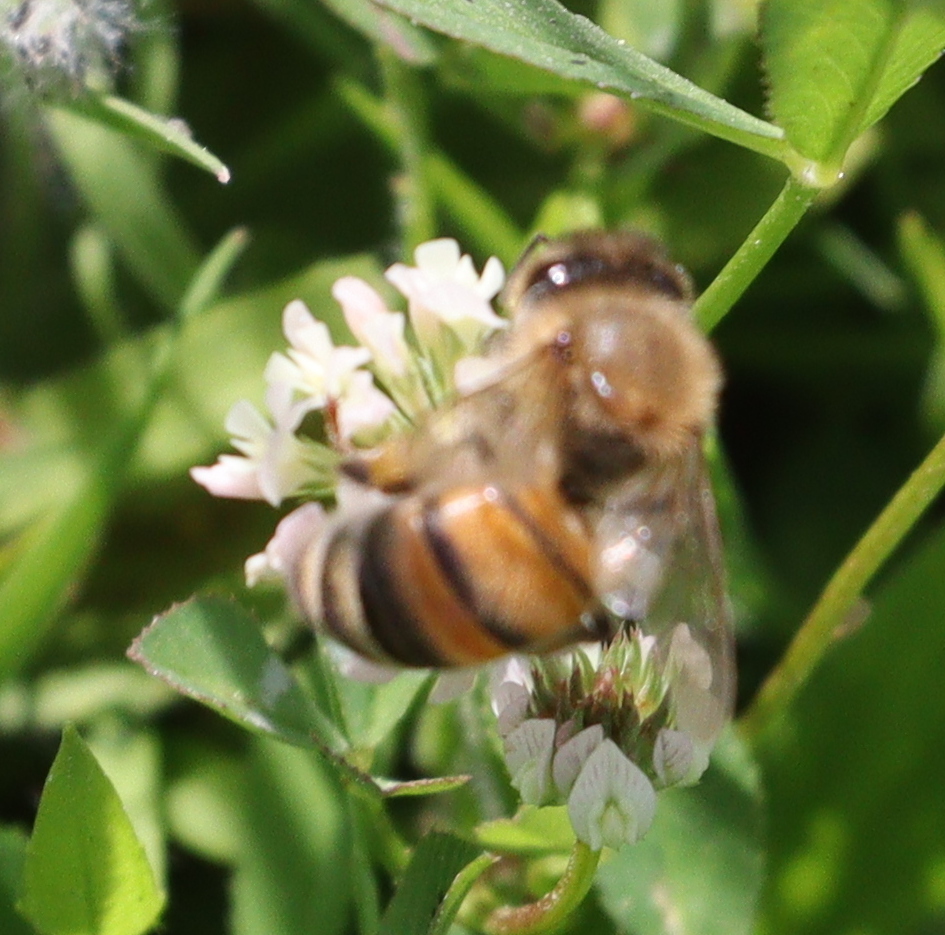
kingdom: Animalia
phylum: Arthropoda
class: Insecta
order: Hymenoptera
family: Apidae
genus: Apis
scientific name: Apis mellifera
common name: Honey bee
